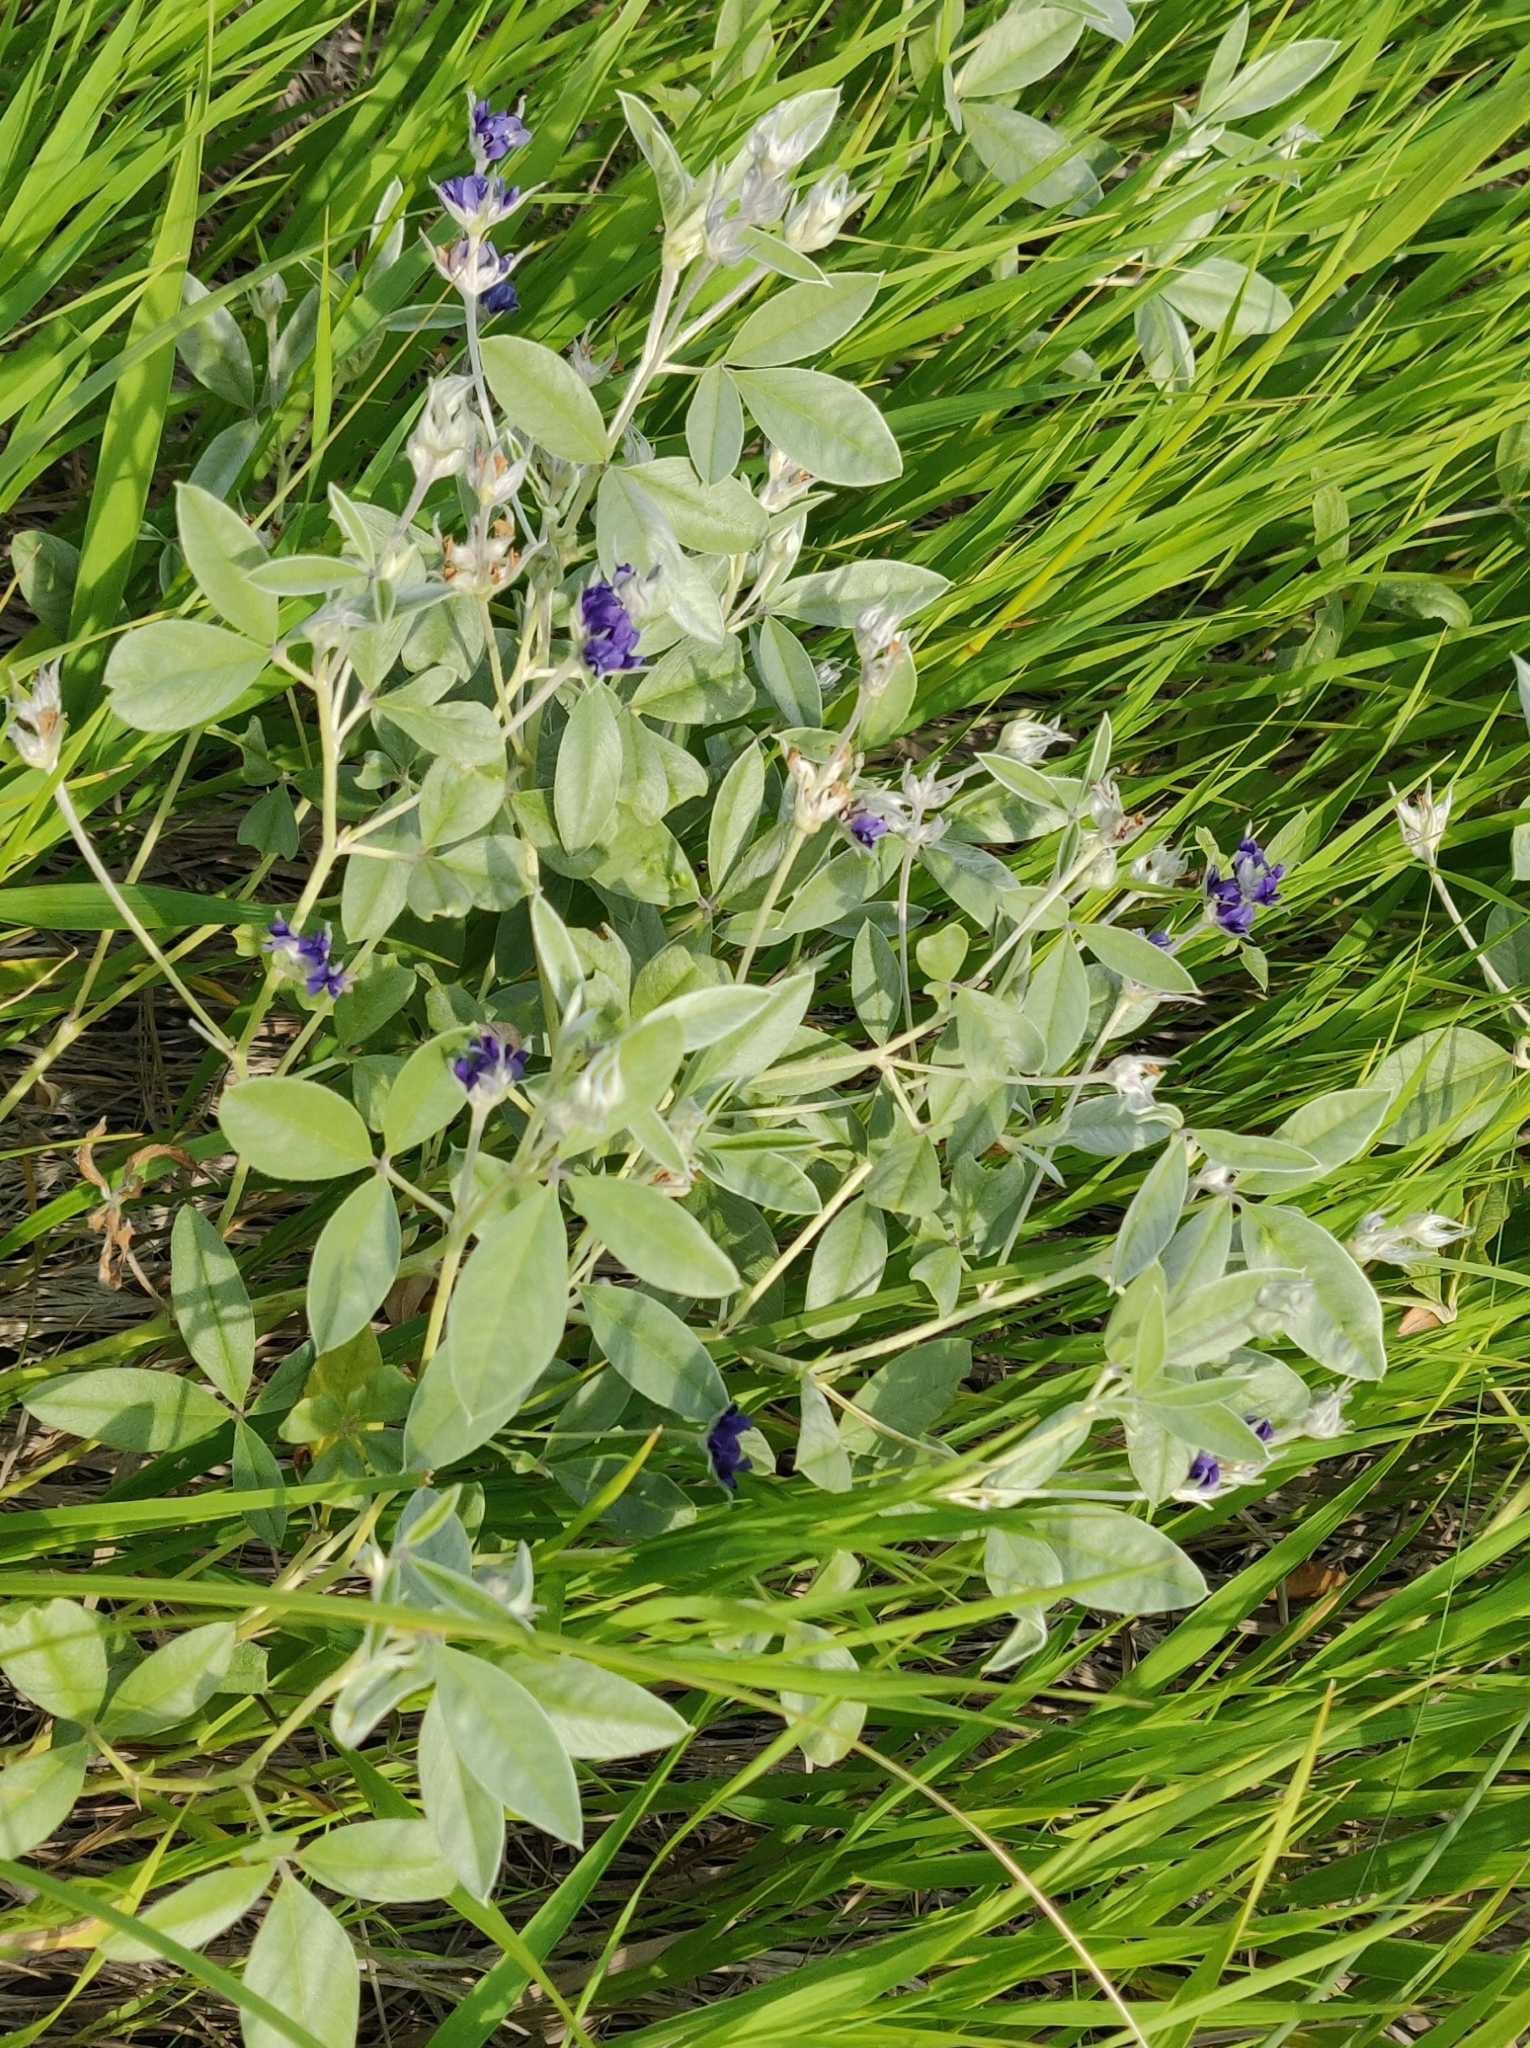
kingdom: Plantae
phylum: Tracheophyta
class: Magnoliopsida
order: Fabales
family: Fabaceae
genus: Pediomelum
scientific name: Pediomelum argophyllum
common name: Silver-leaved indian breadroot
